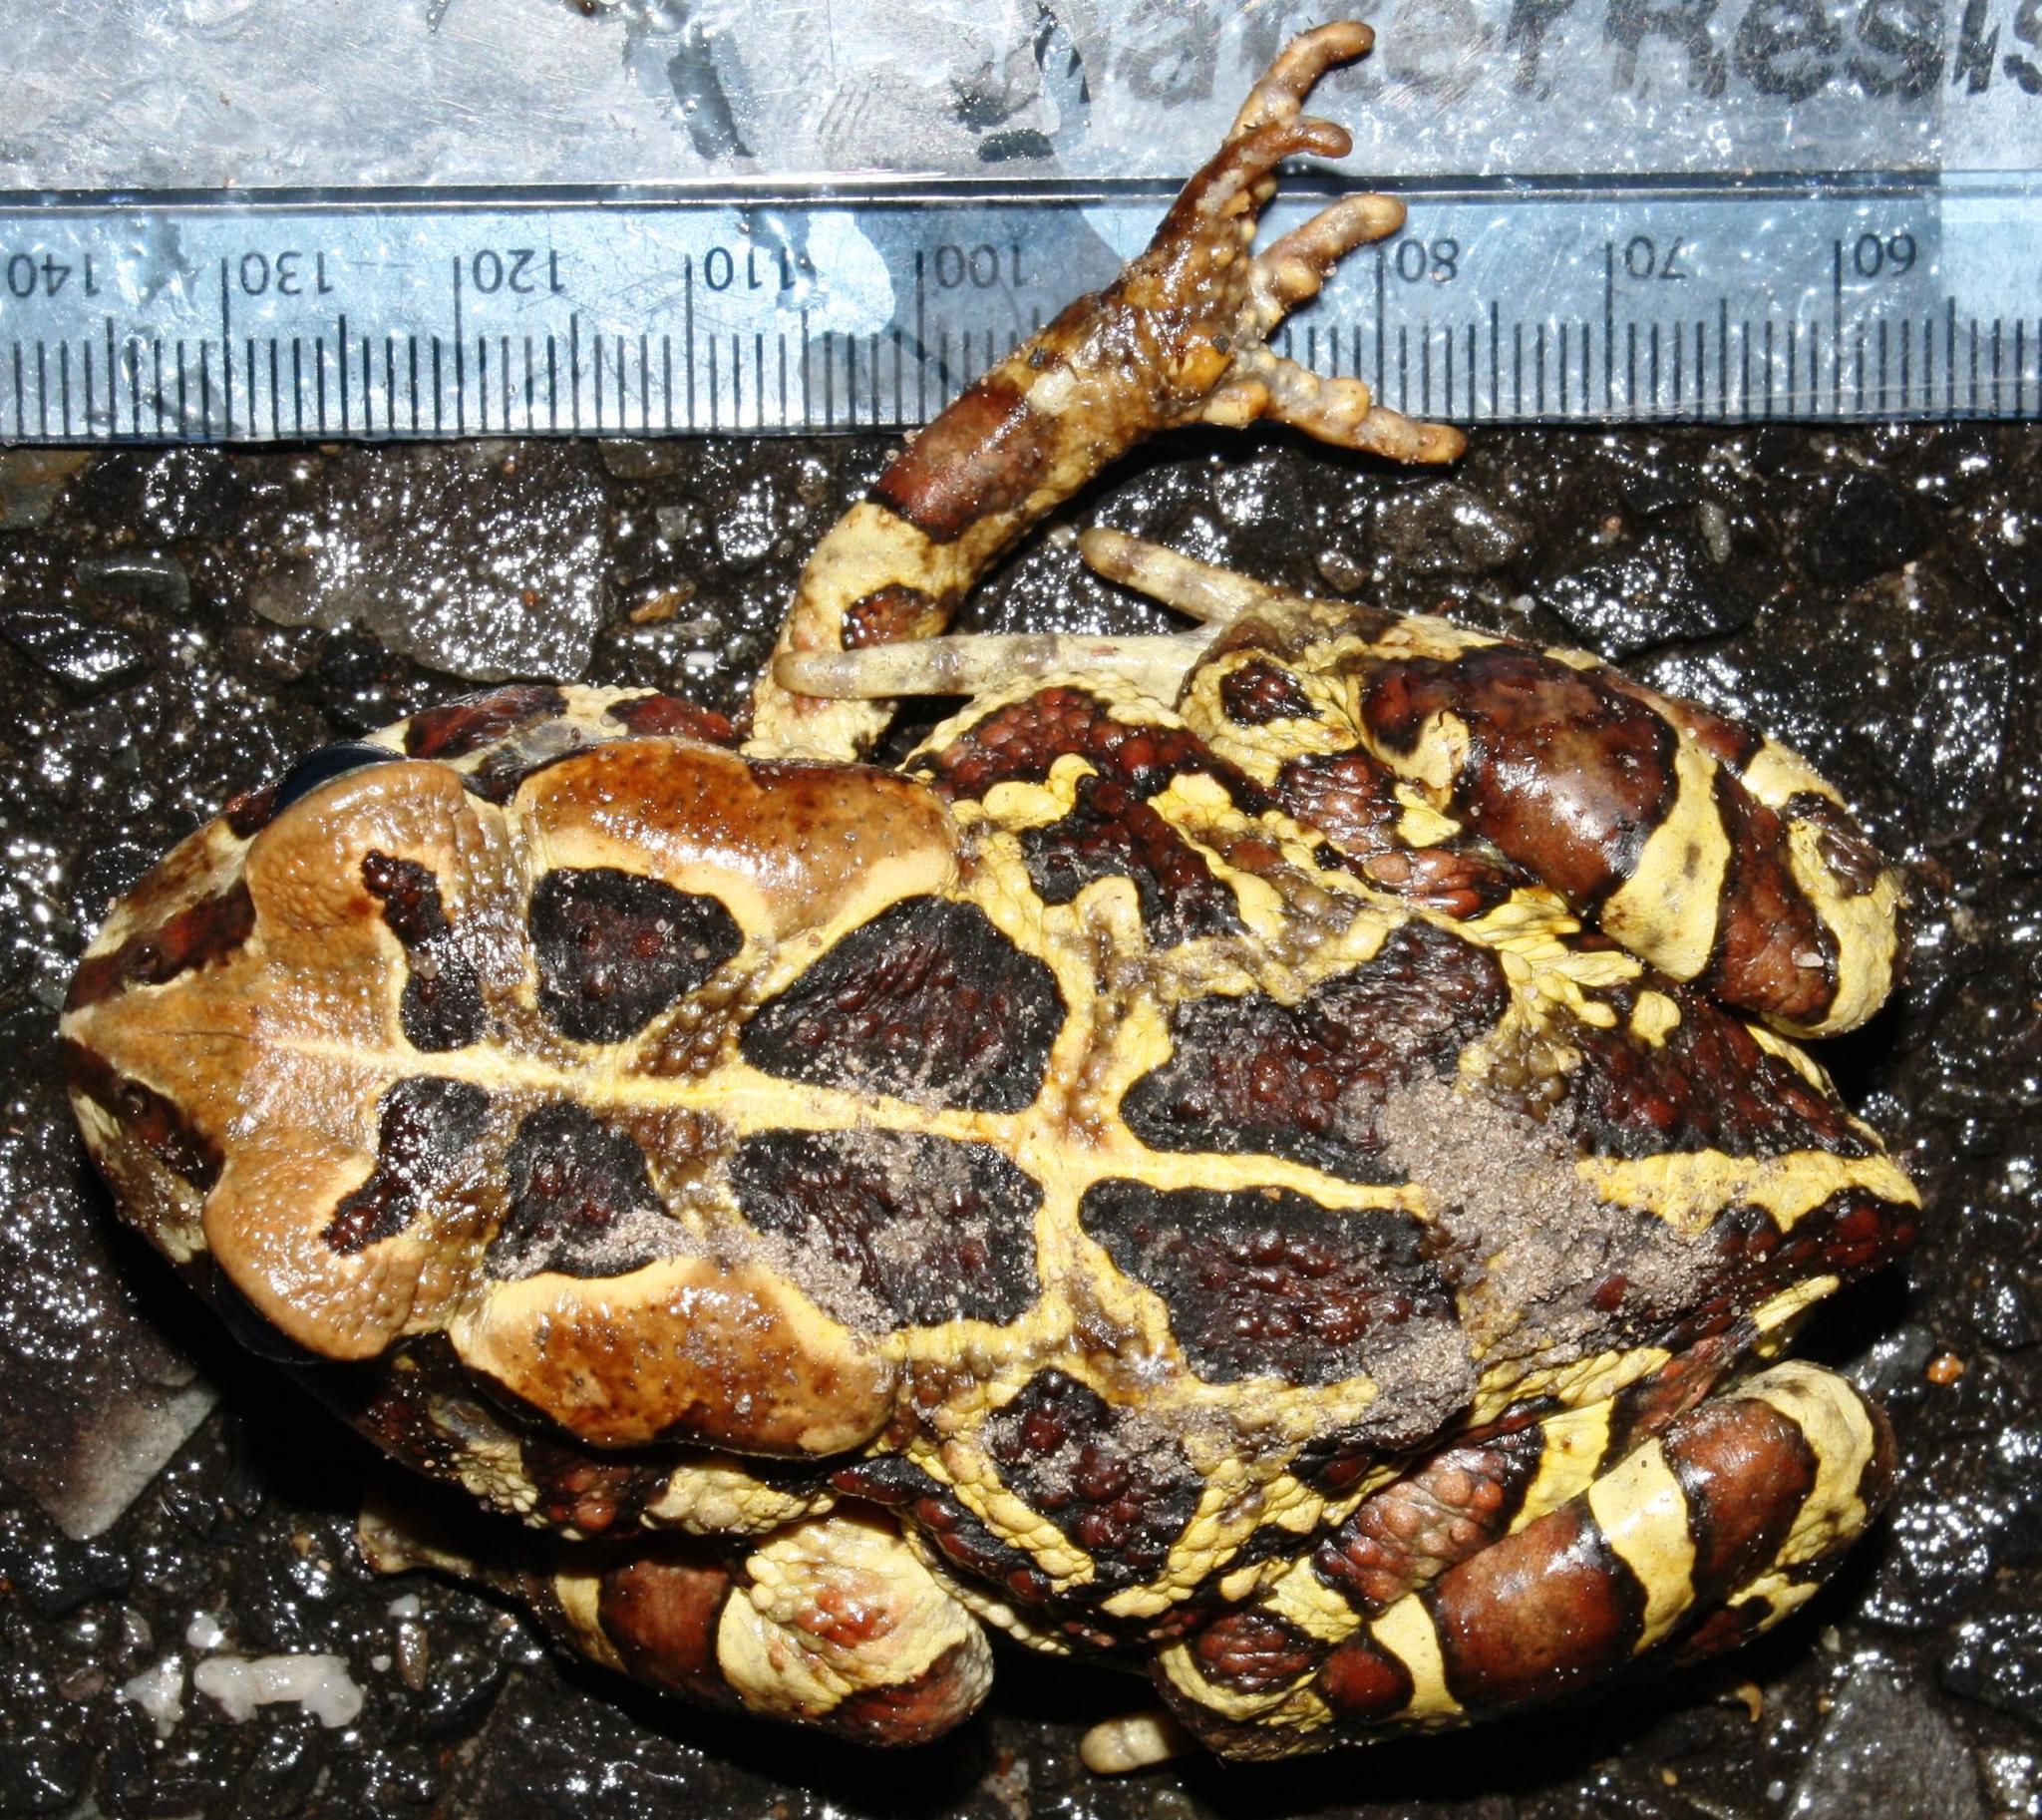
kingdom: Animalia
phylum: Chordata
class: Amphibia
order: Anura
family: Bufonidae
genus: Sclerophrys
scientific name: Sclerophrys pantherina
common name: Panther toad
